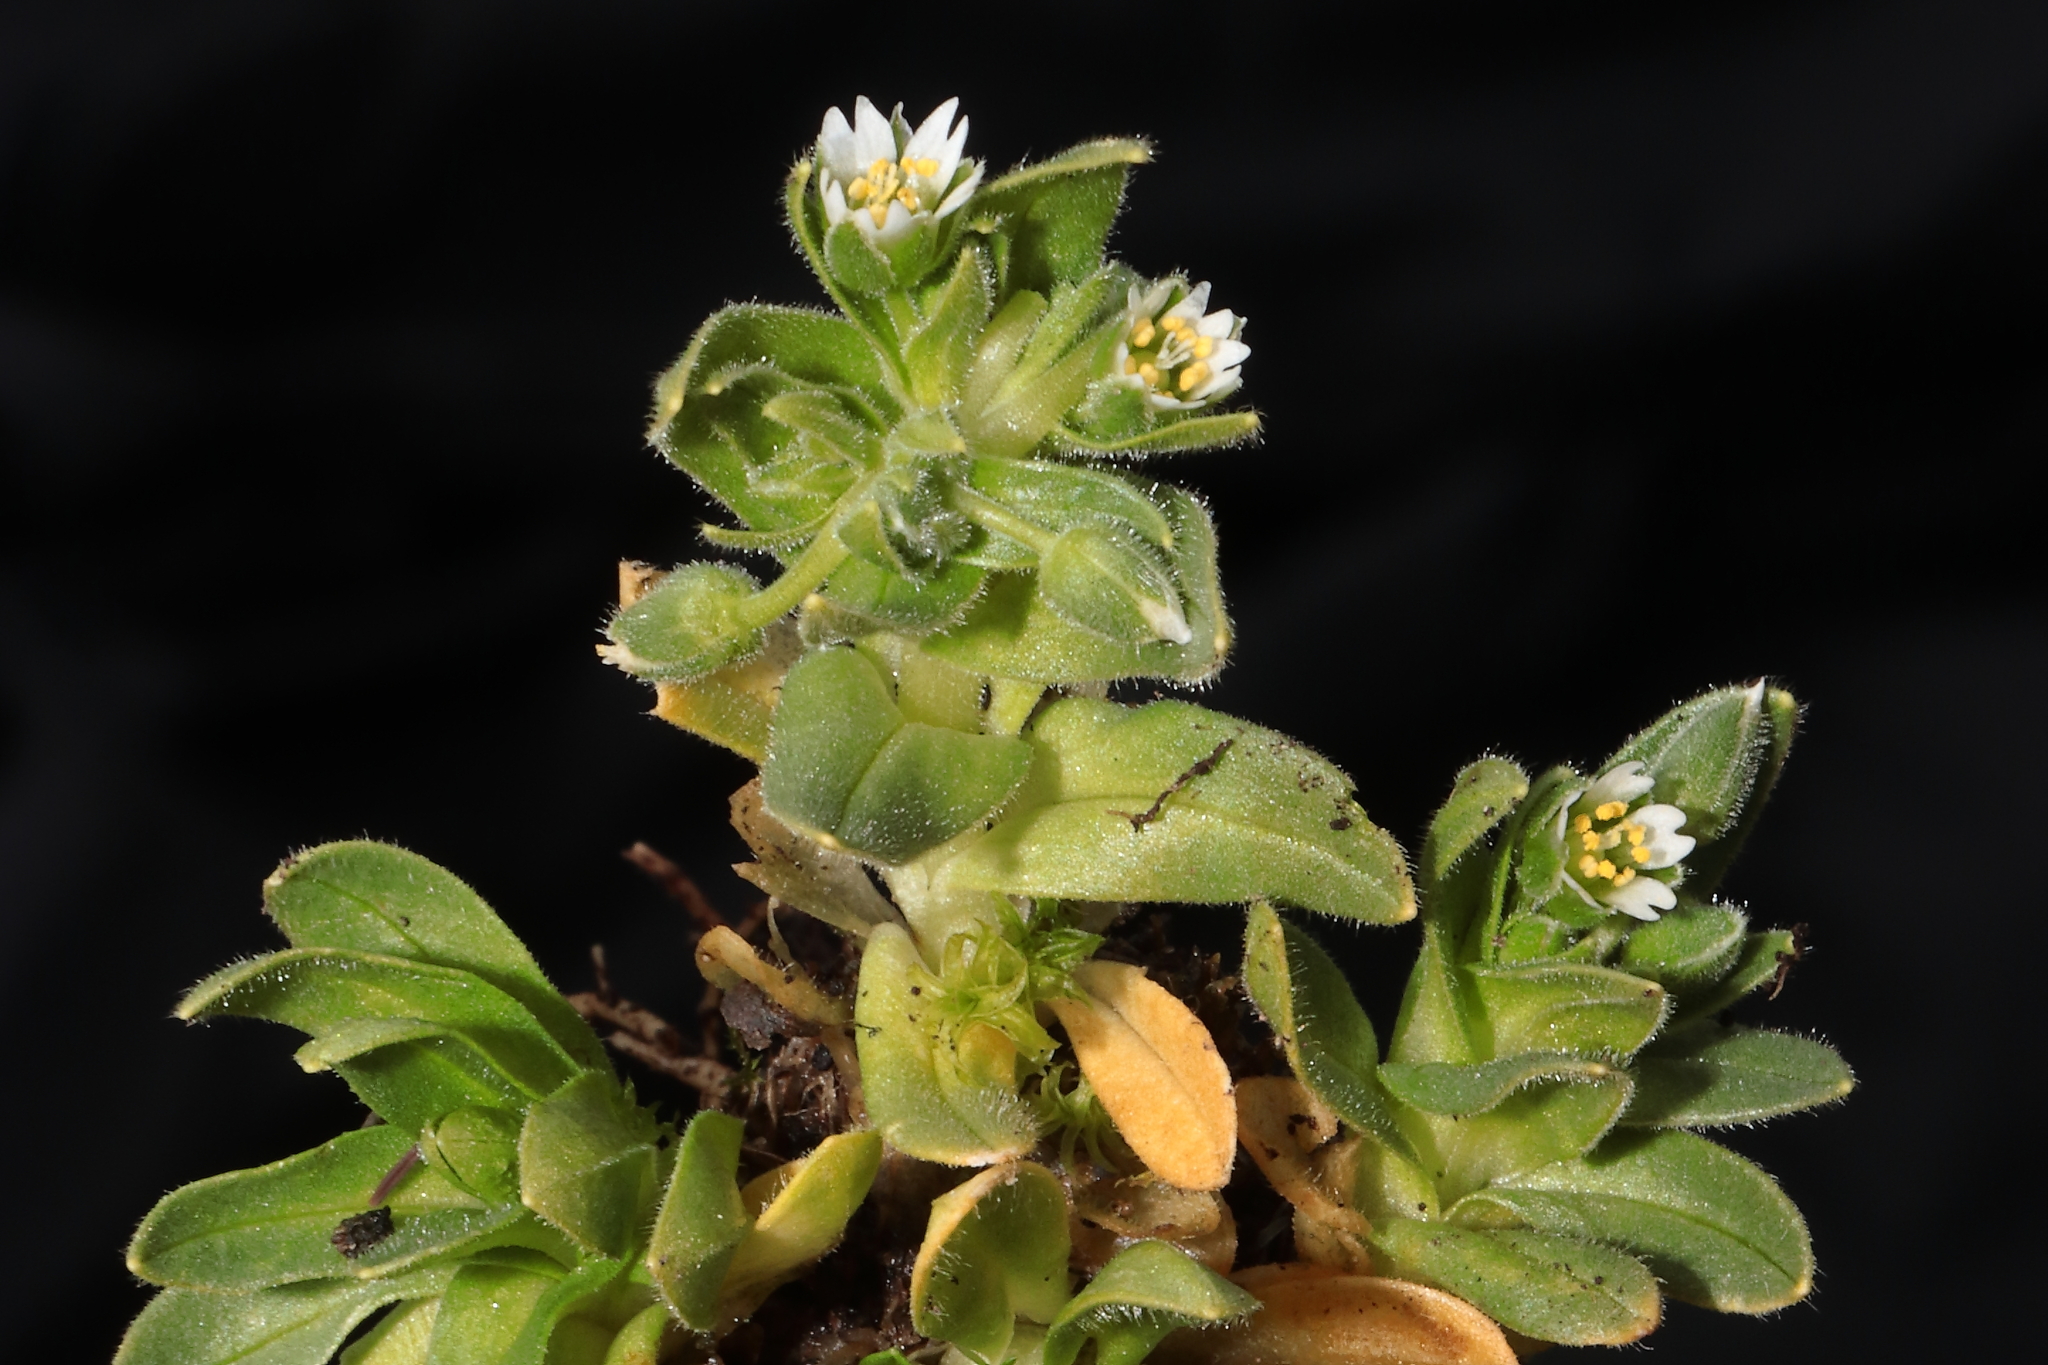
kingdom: Plantae
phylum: Tracheophyta
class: Magnoliopsida
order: Caryophyllales
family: Caryophyllaceae
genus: Cerastium
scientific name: Cerastium behmianum
